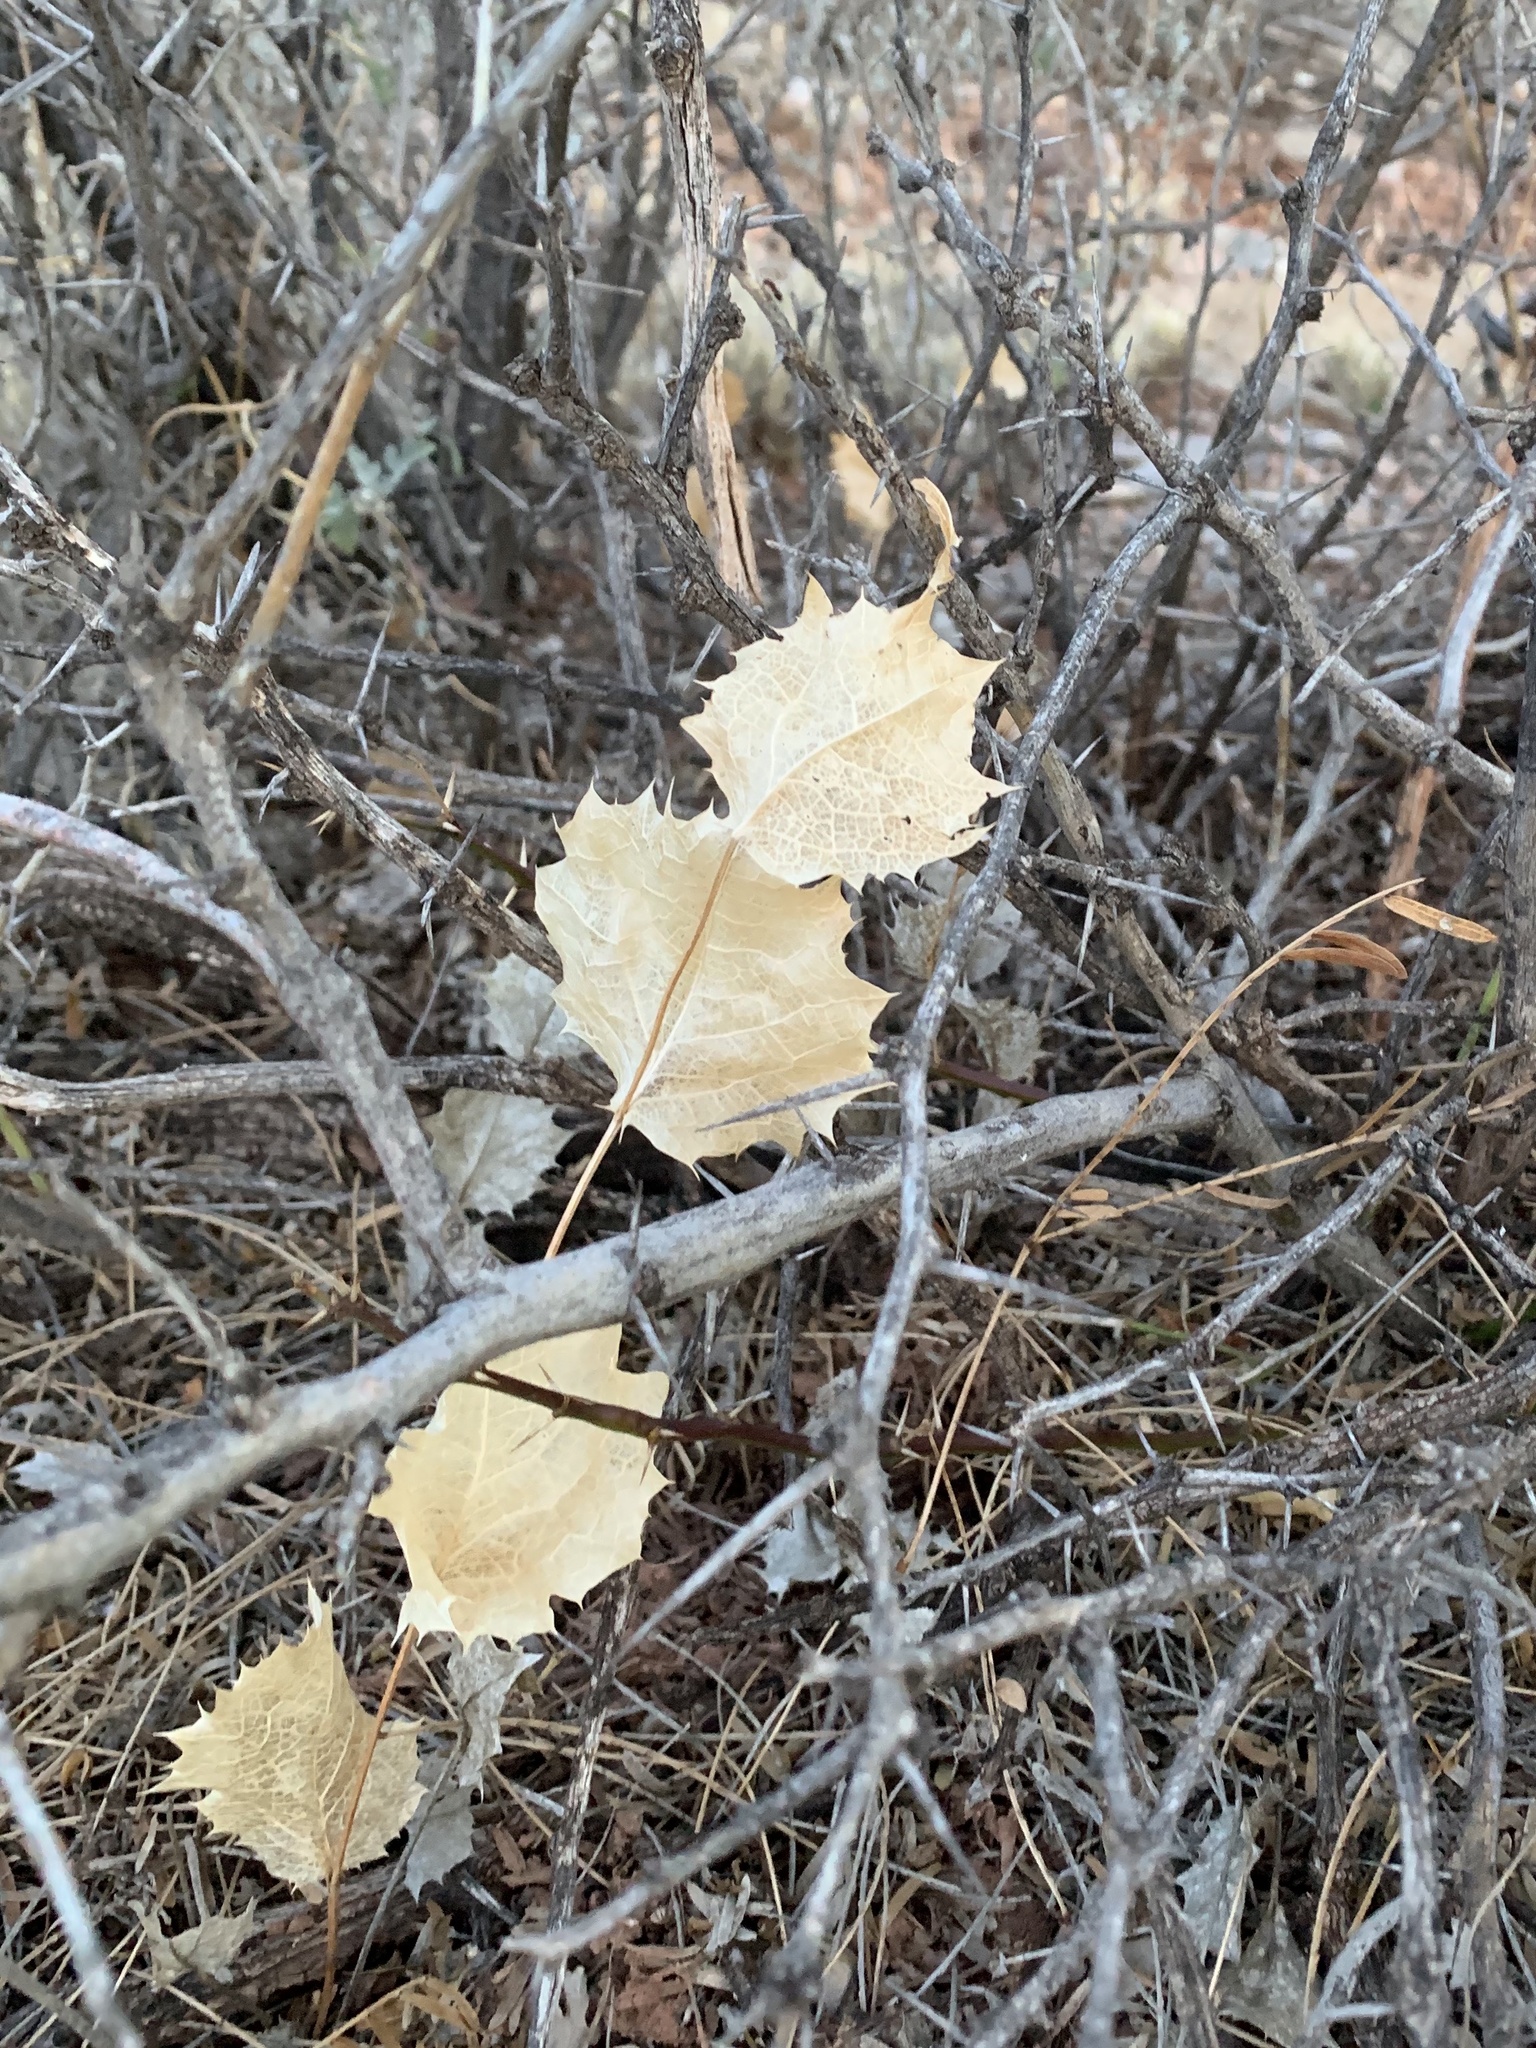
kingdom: Plantae
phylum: Tracheophyta
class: Magnoliopsida
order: Asterales
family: Asteraceae
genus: Acourtia
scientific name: Acourtia nana
